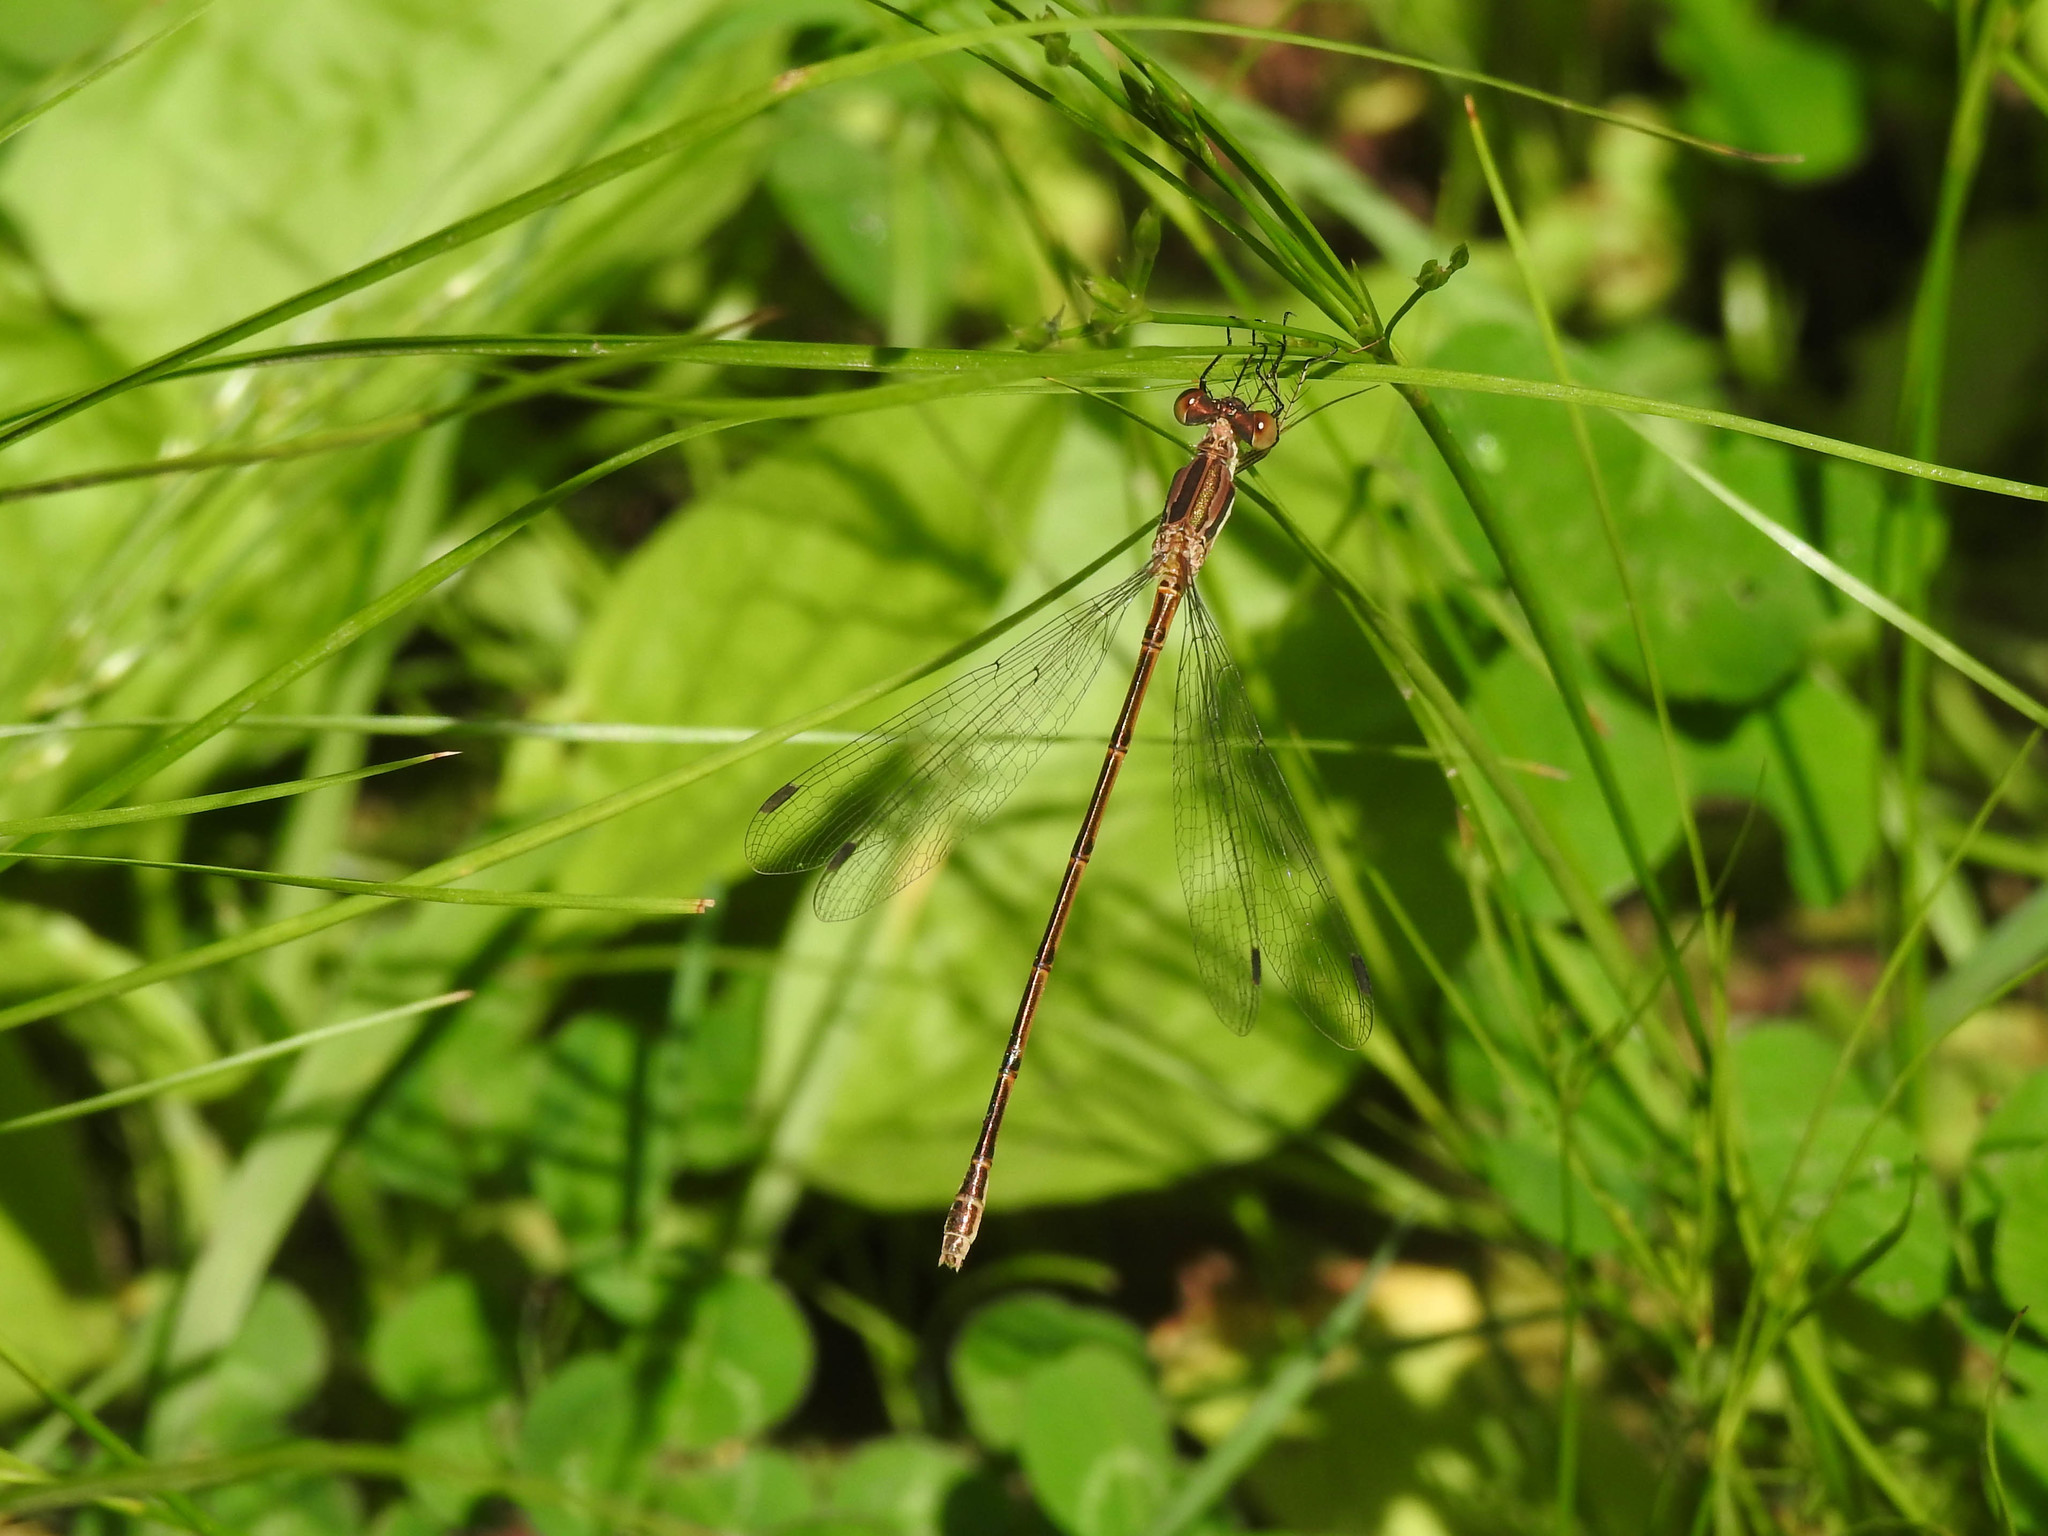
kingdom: Animalia
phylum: Arthropoda
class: Insecta
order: Odonata
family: Lestidae
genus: Lestes
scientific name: Lestes rectangularis
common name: Slender spreadwing
